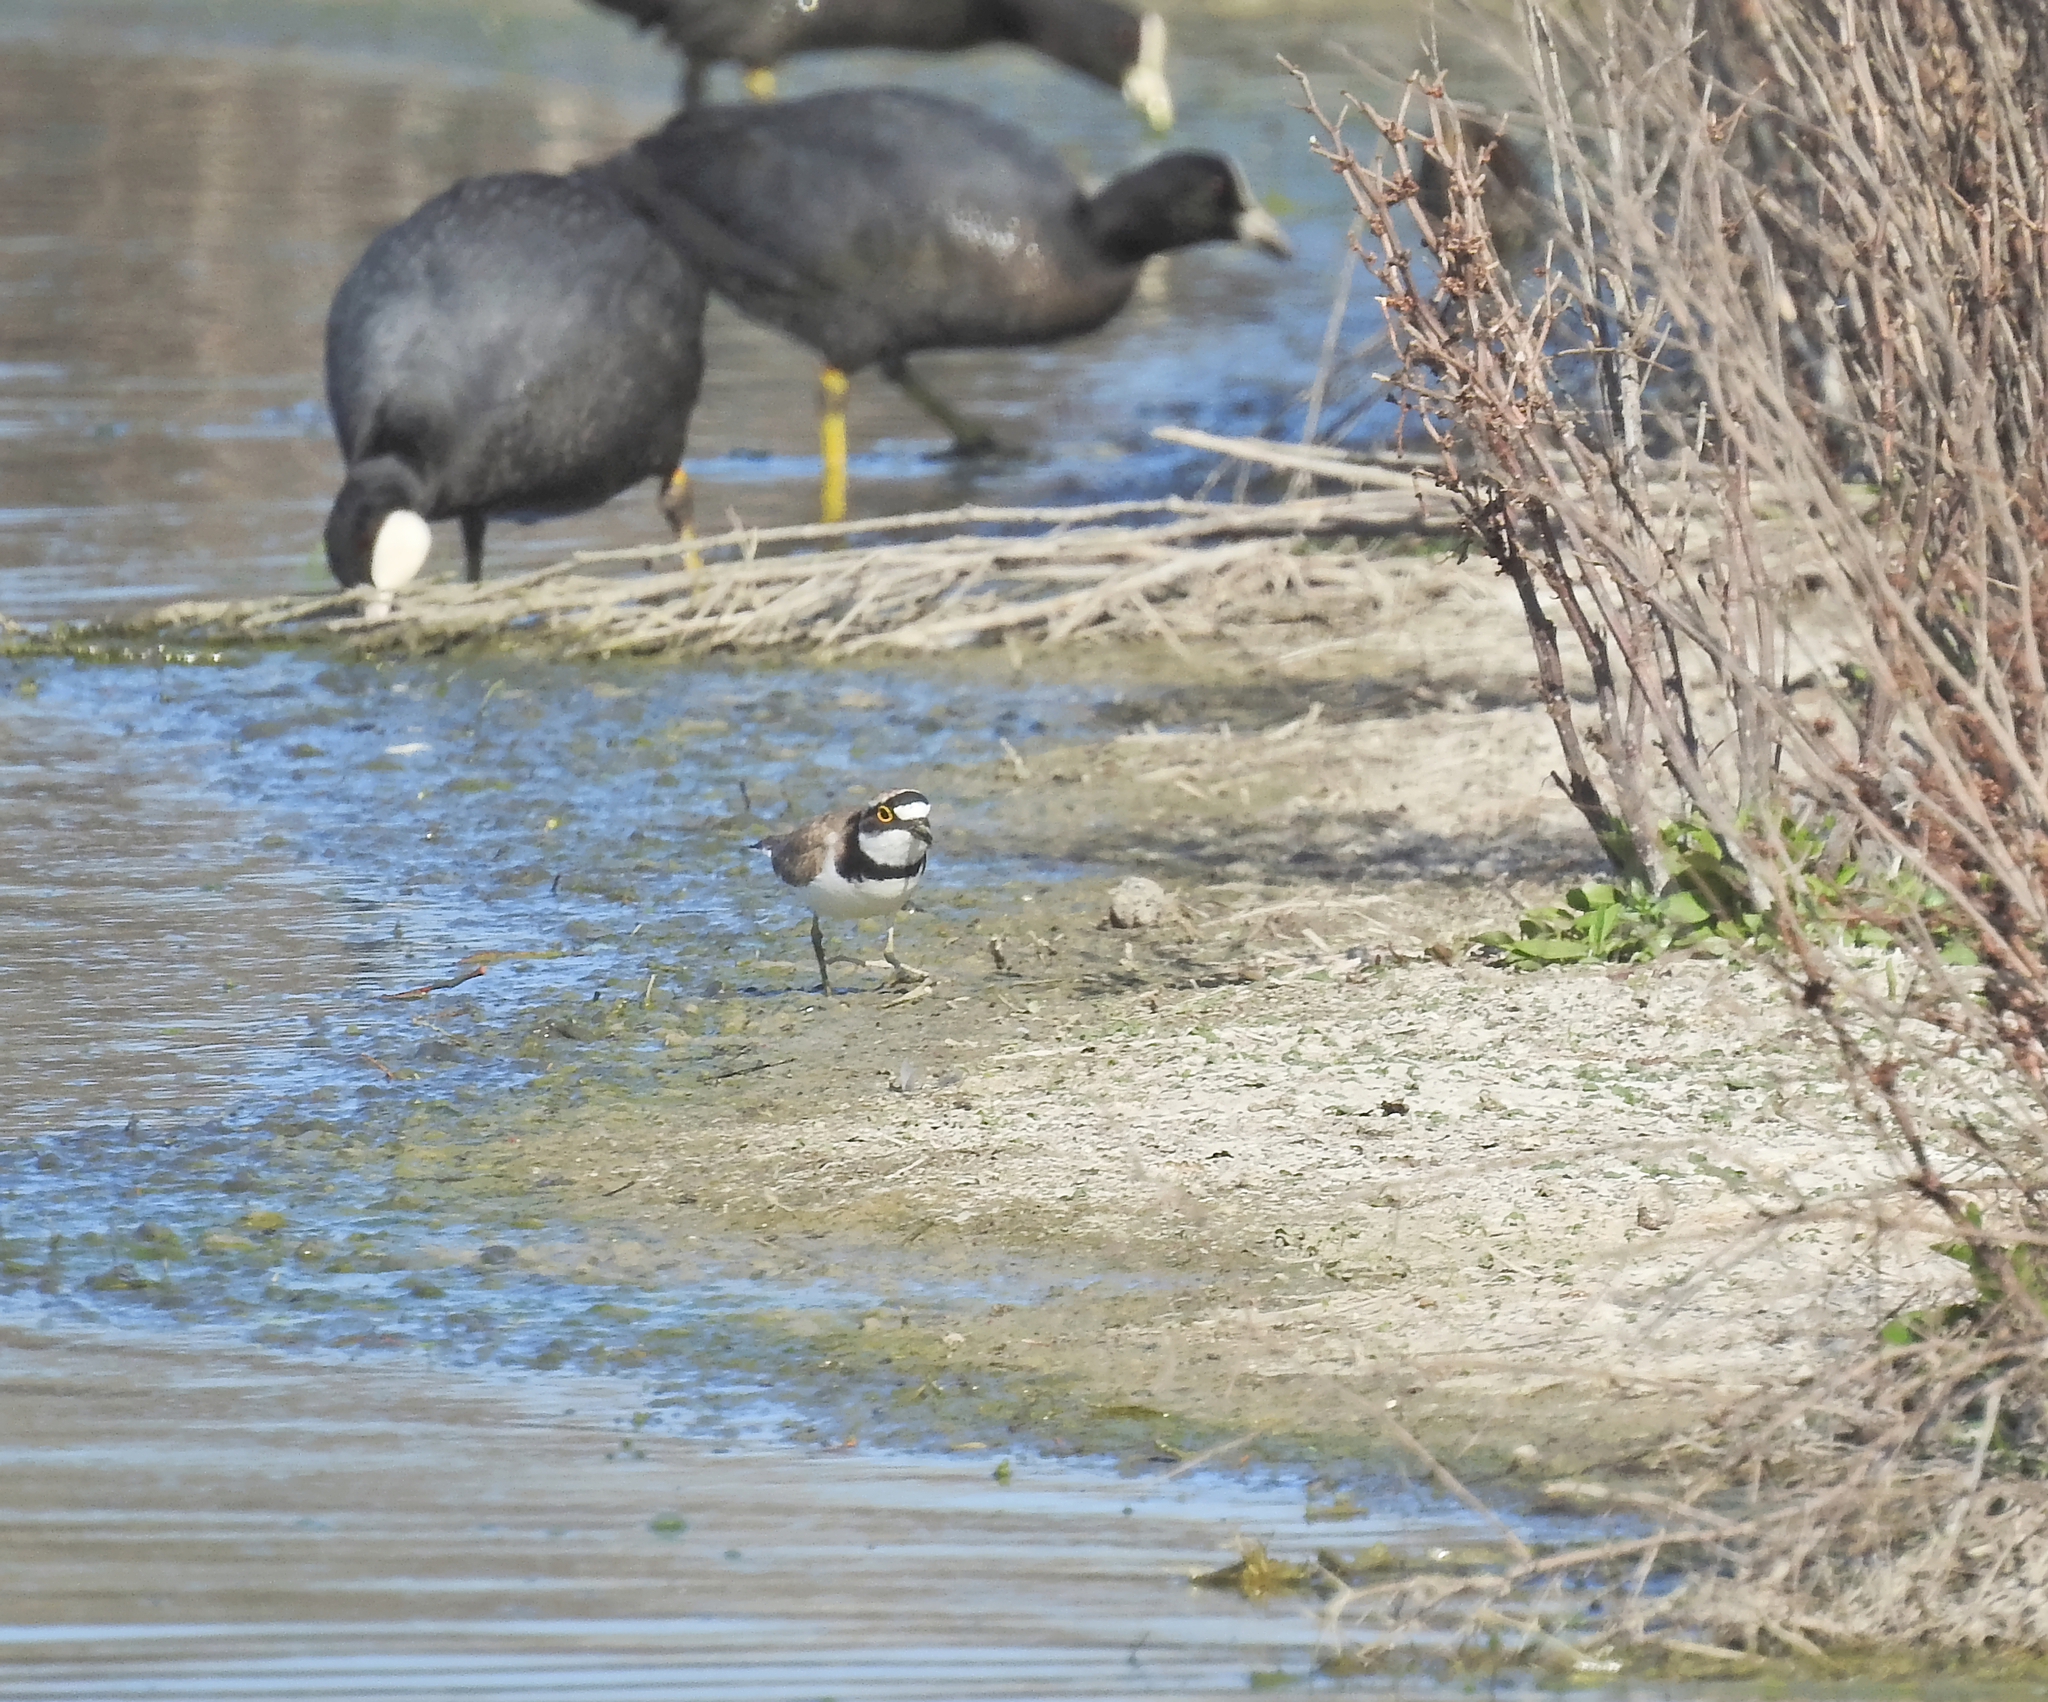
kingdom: Animalia
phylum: Chordata
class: Aves
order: Charadriiformes
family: Charadriidae
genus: Charadrius
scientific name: Charadrius dubius
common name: Little ringed plover
